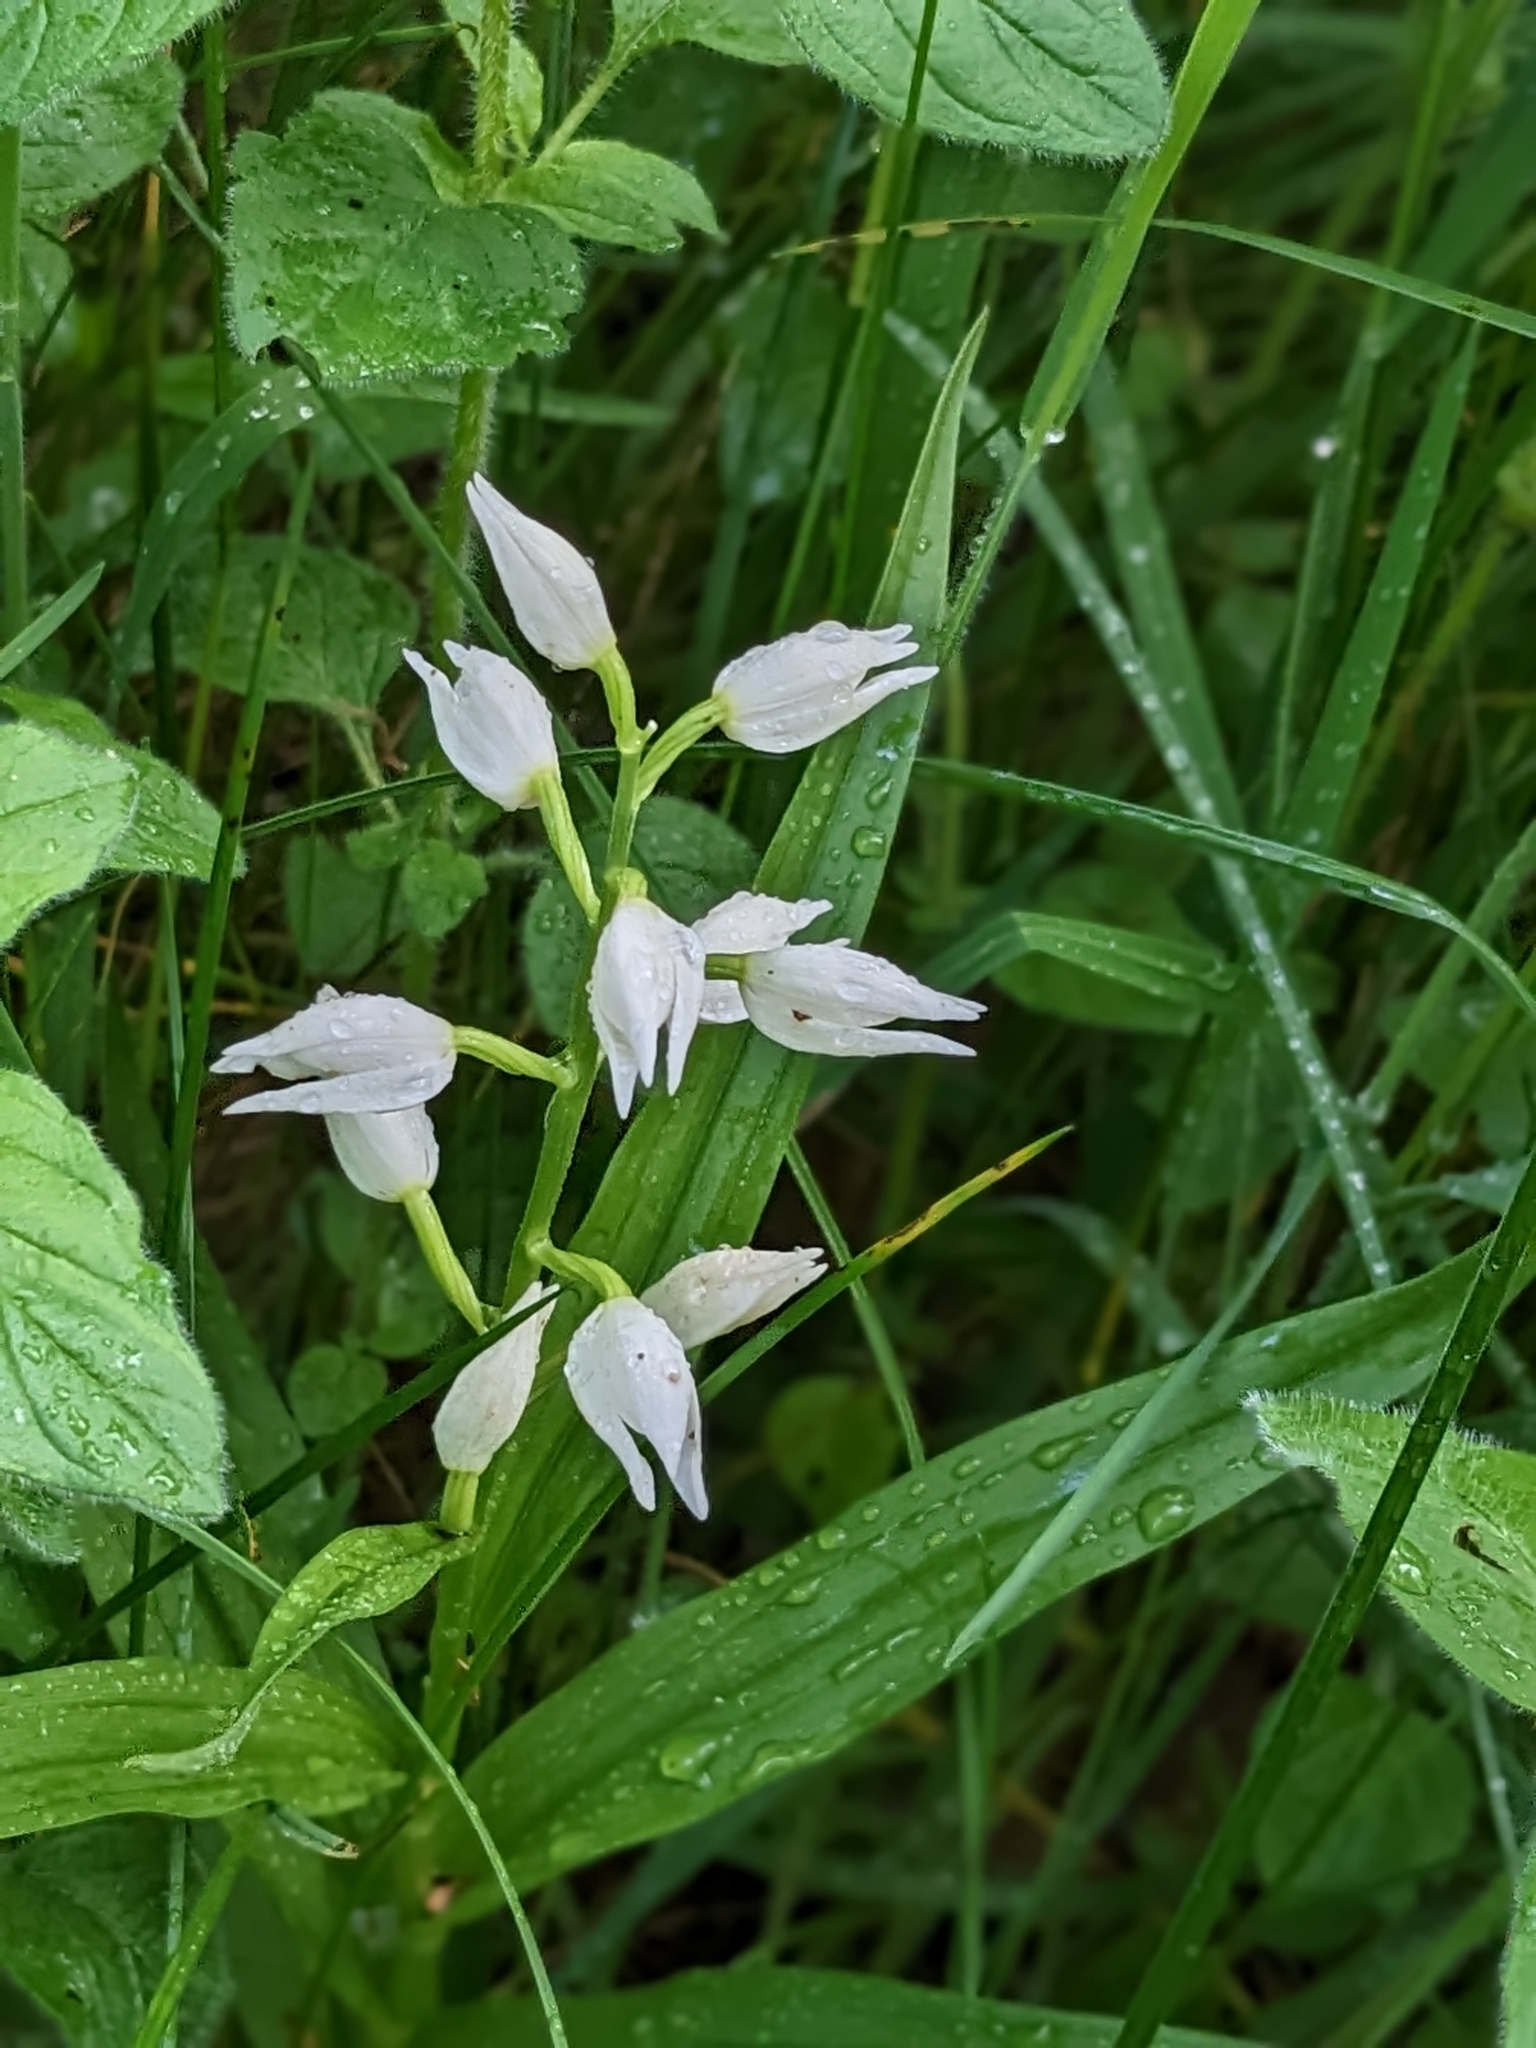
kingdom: Plantae
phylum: Tracheophyta
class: Liliopsida
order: Asparagales
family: Orchidaceae
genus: Cephalanthera
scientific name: Cephalanthera longifolia
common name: Narrow-leaved helleborine
